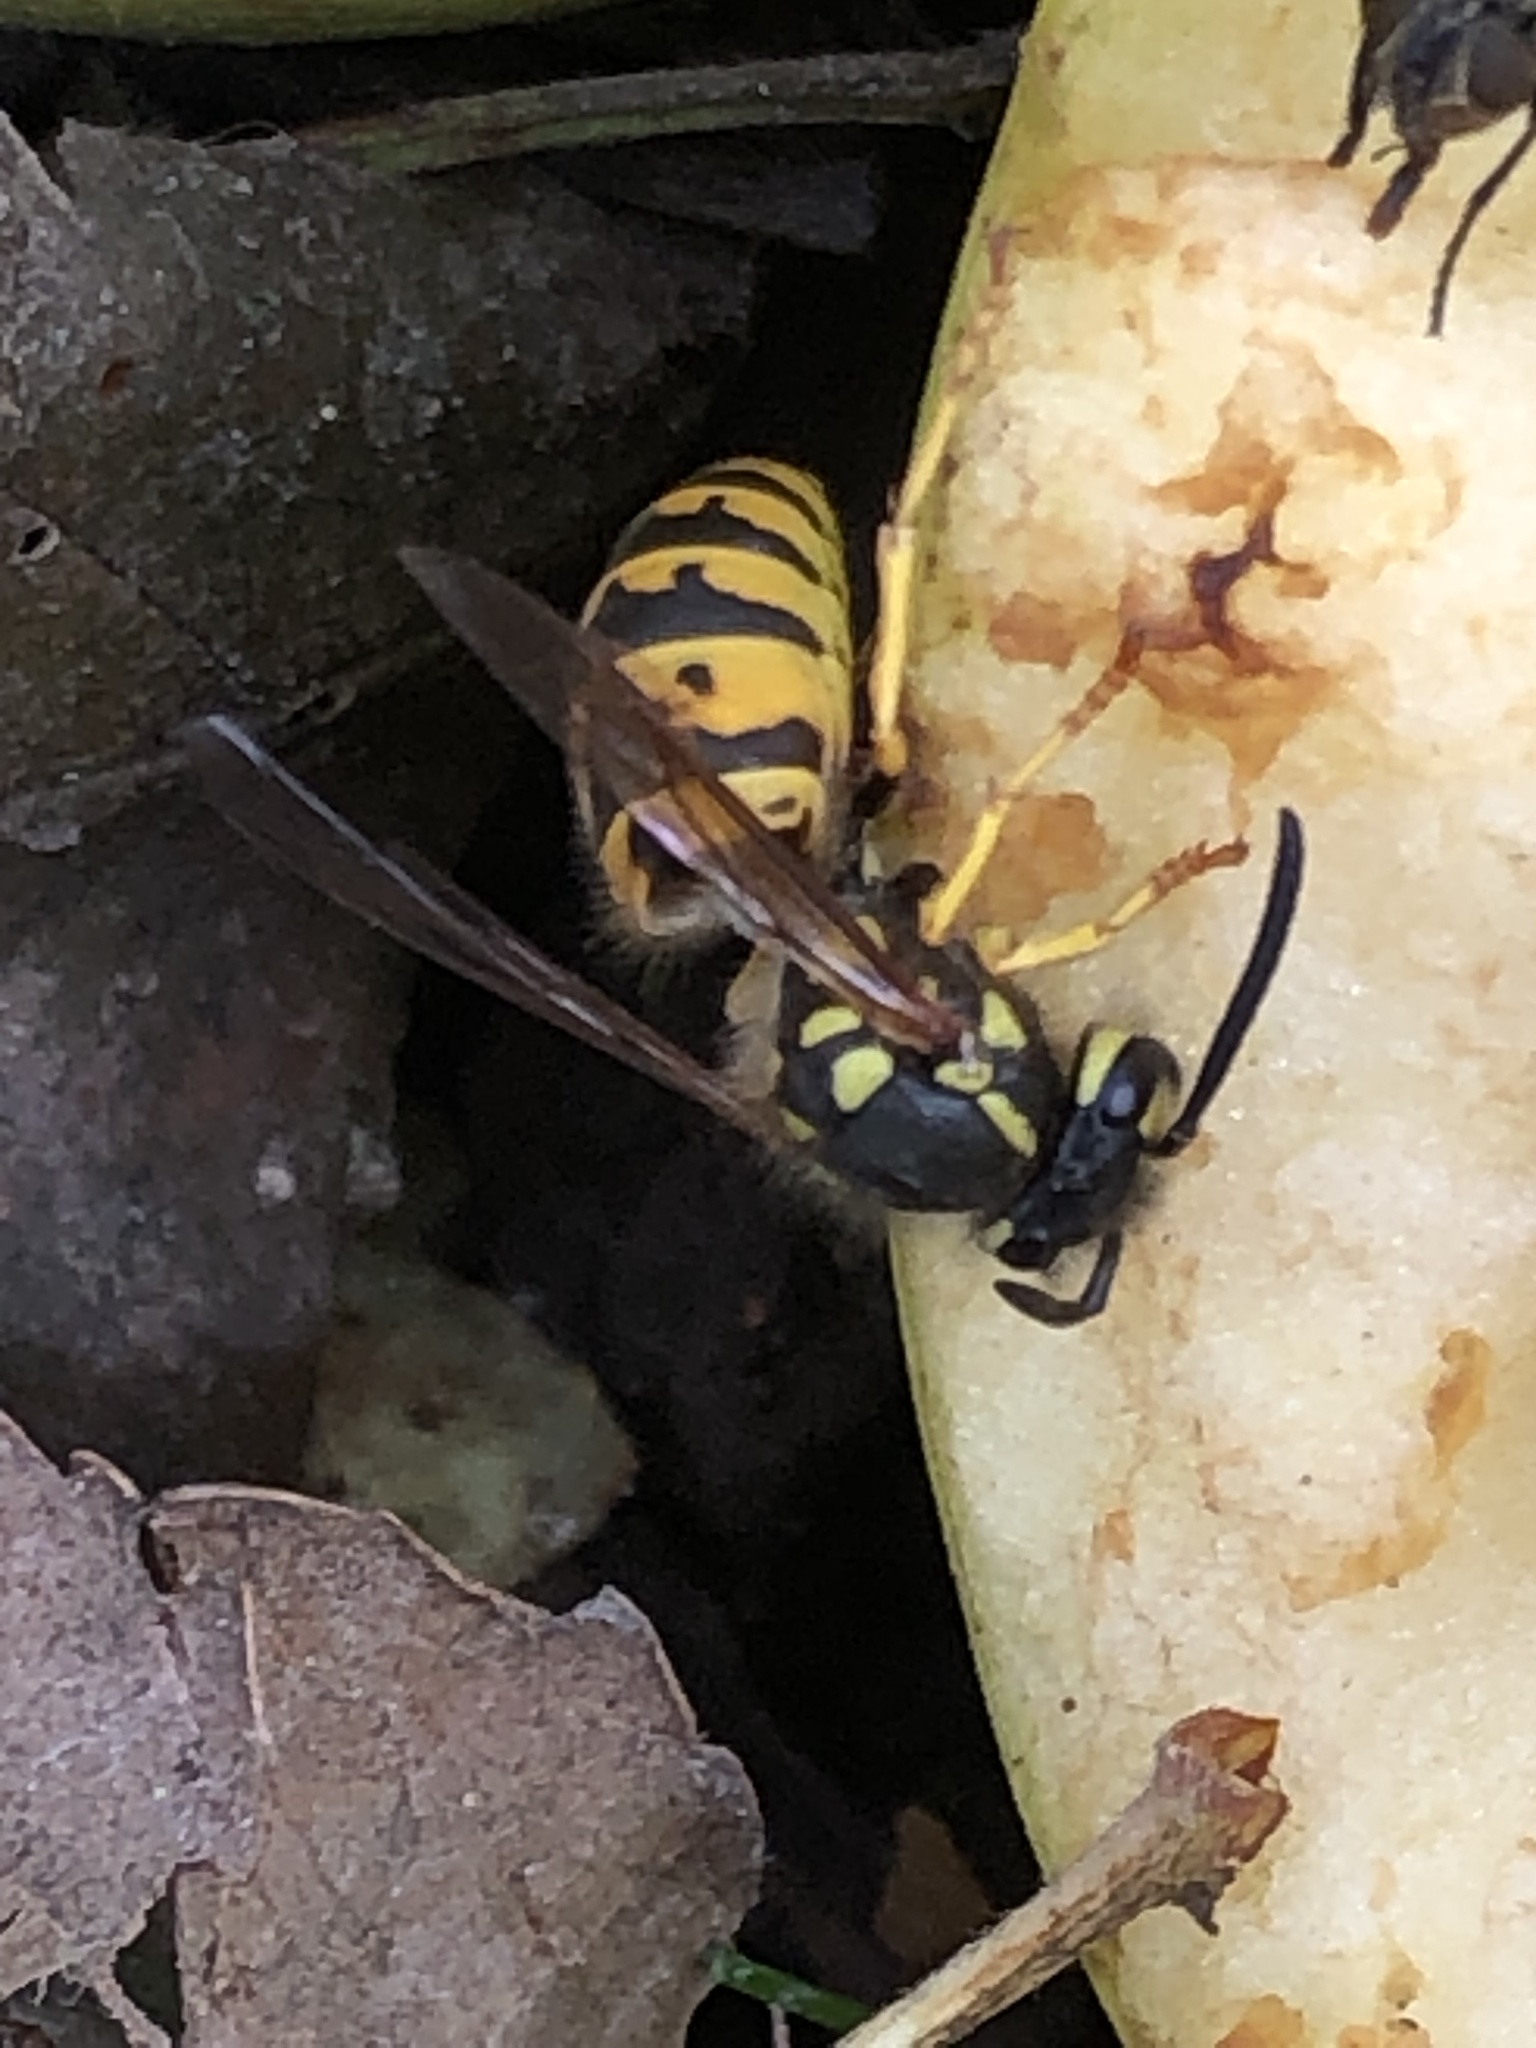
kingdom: Animalia
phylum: Arthropoda
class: Insecta
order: Hymenoptera
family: Vespidae
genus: Vespula
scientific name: Vespula germanica
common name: German wasp
